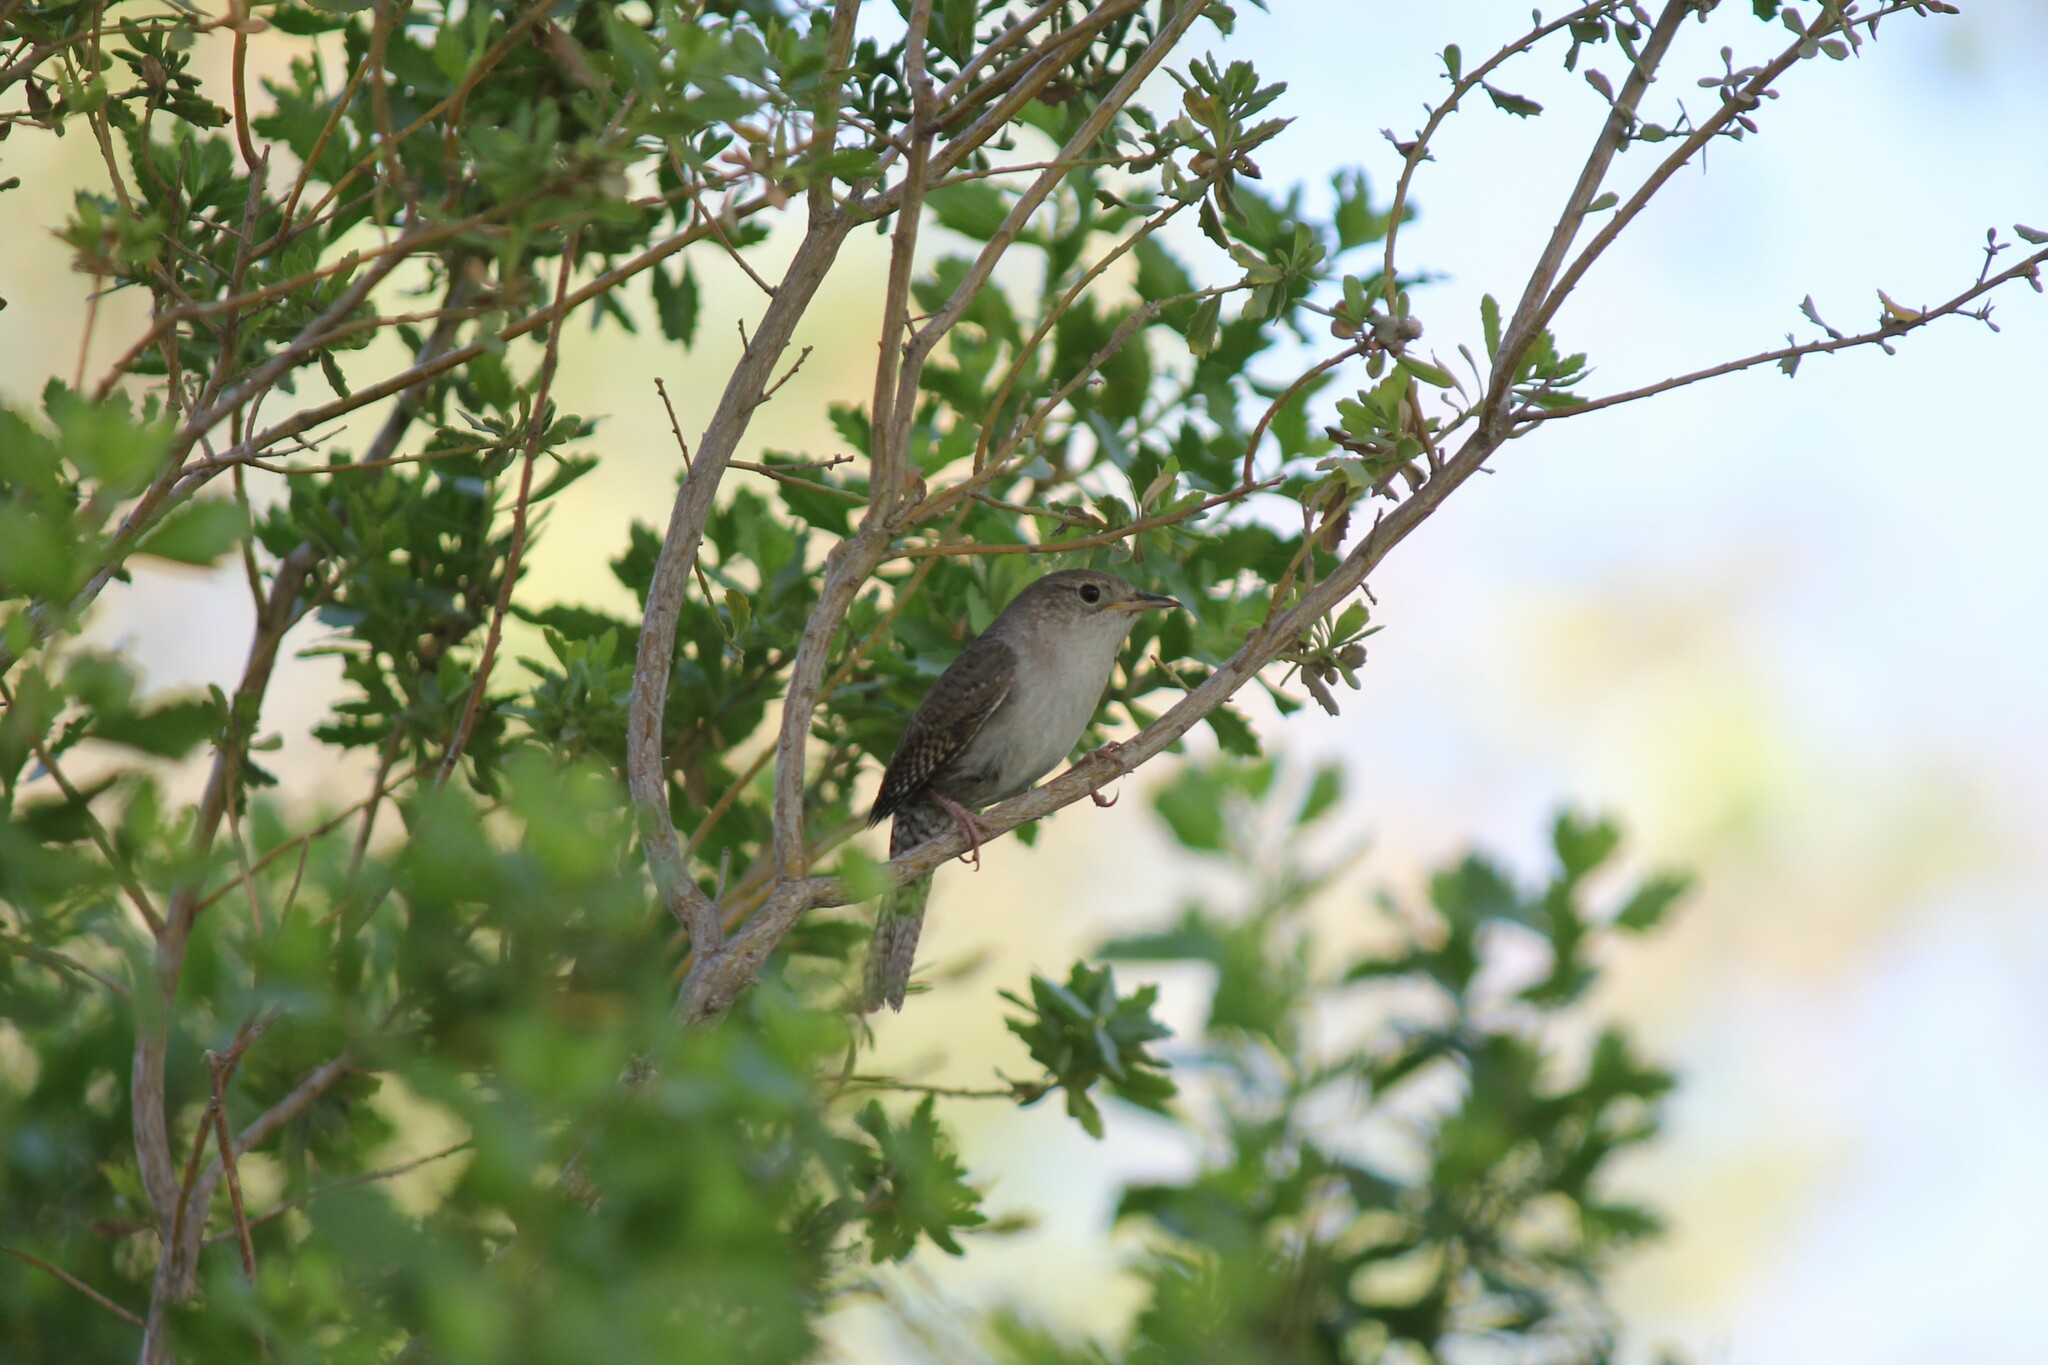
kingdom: Animalia
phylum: Chordata
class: Aves
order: Passeriformes
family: Troglodytidae
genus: Troglodytes
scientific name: Troglodytes aedon
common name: House wren
